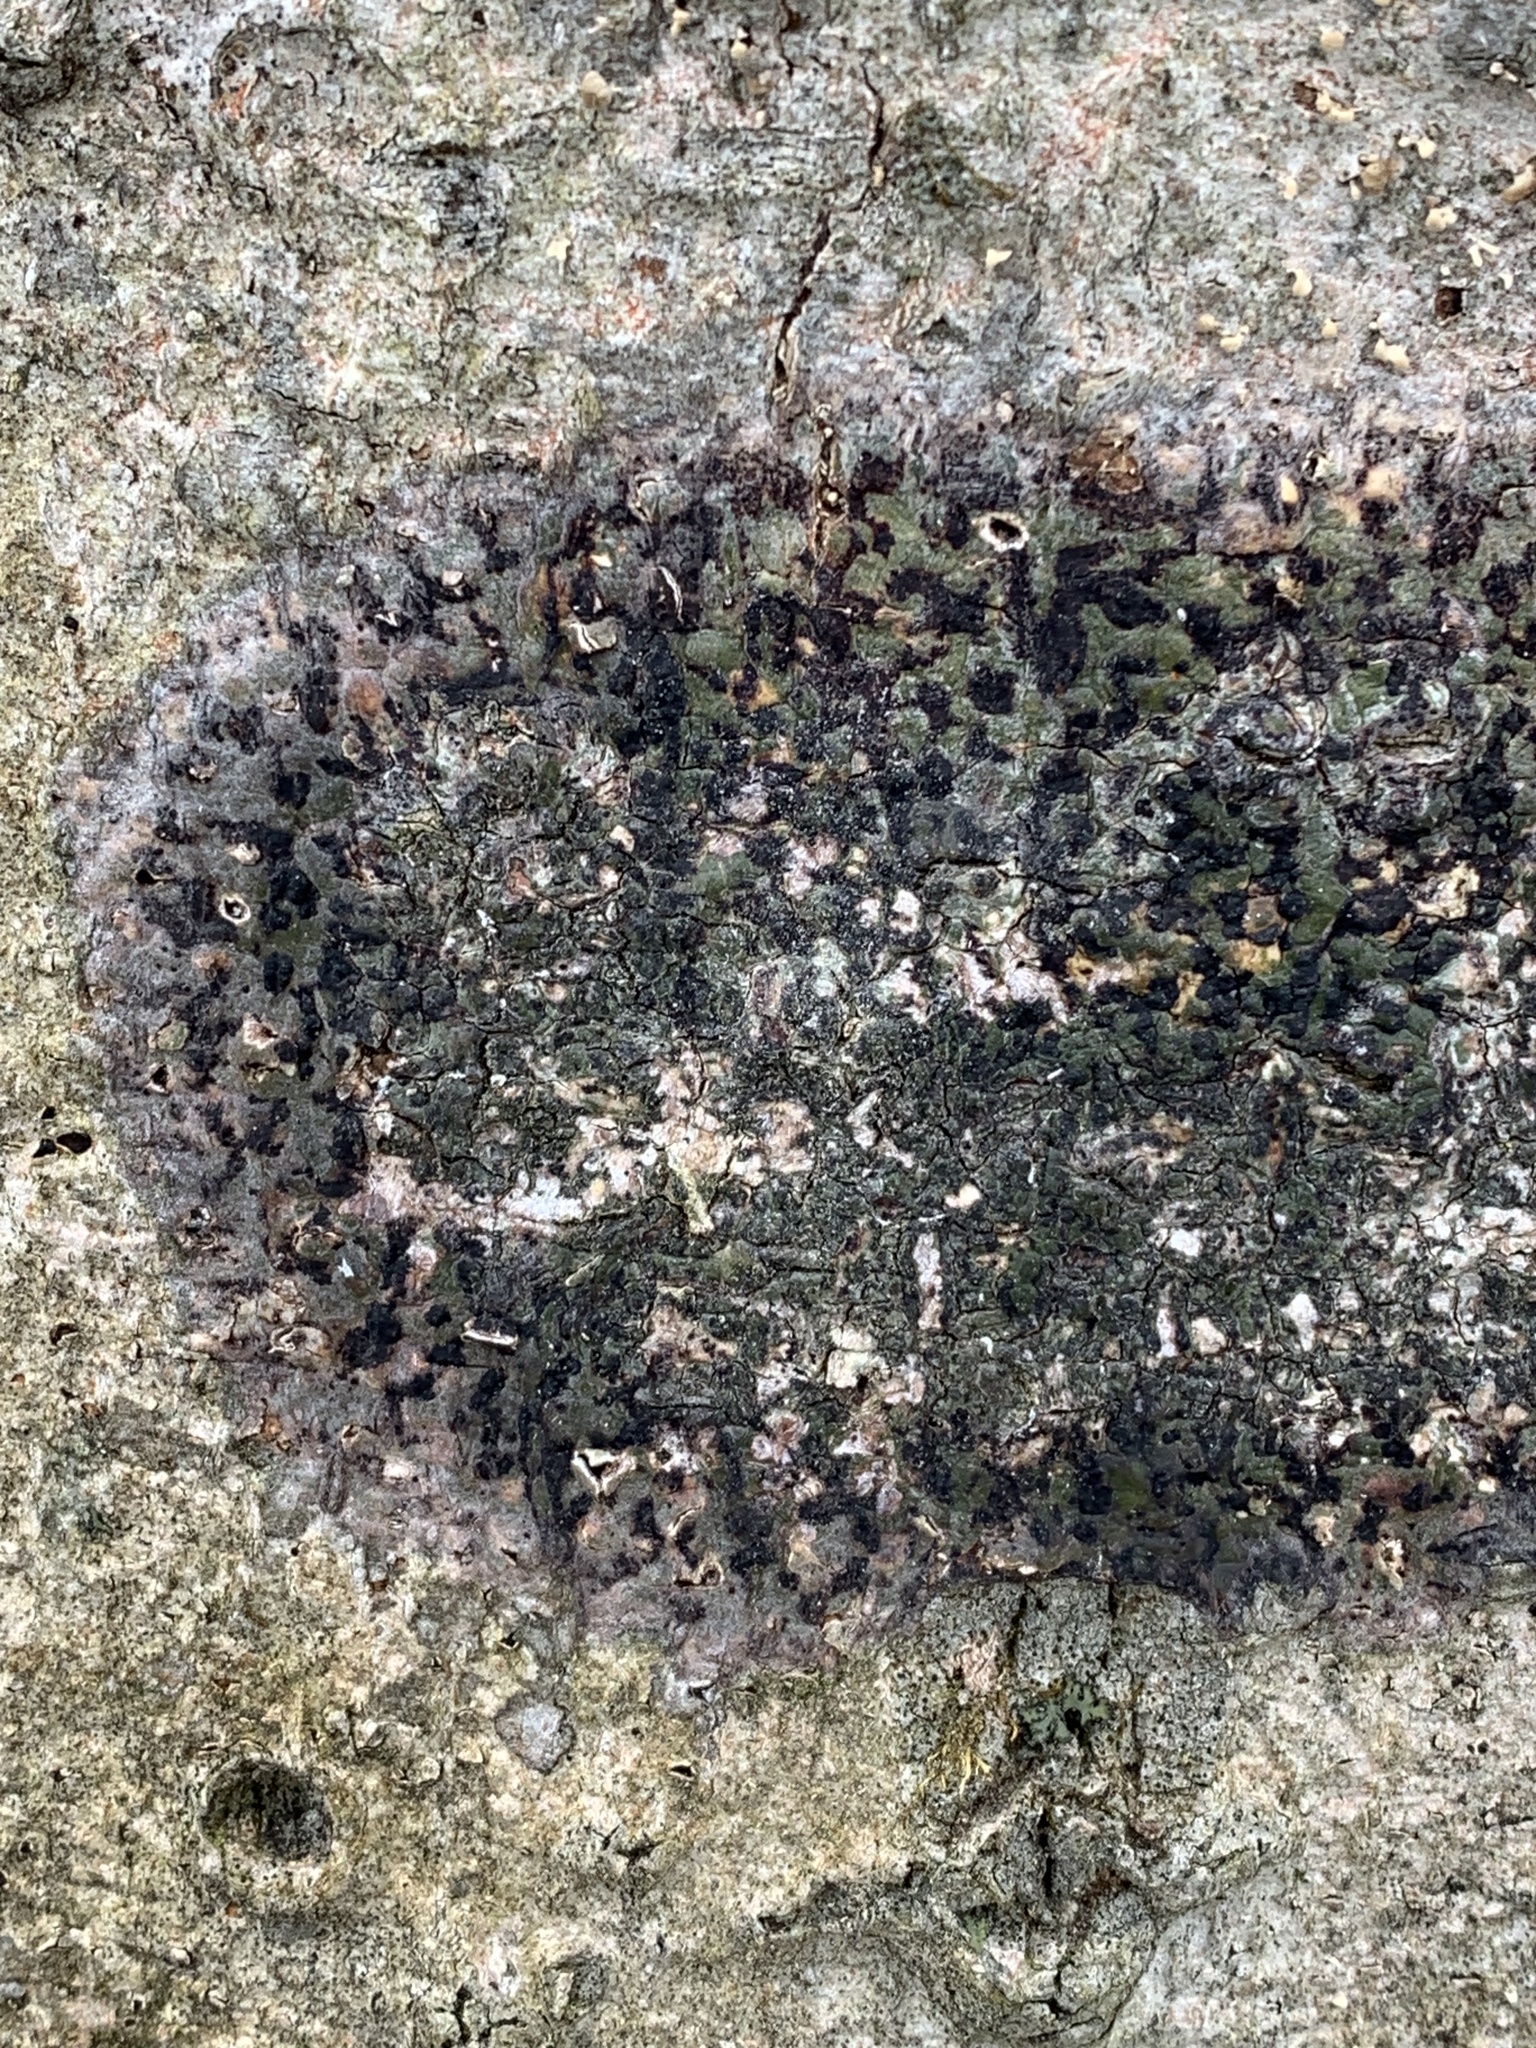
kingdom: Fungi
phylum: Ascomycota
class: Dothideomycetes
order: Trypetheliales
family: Trypetheliaceae
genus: Viridothelium
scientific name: Viridothelium virens
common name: Speckled blister lichen
